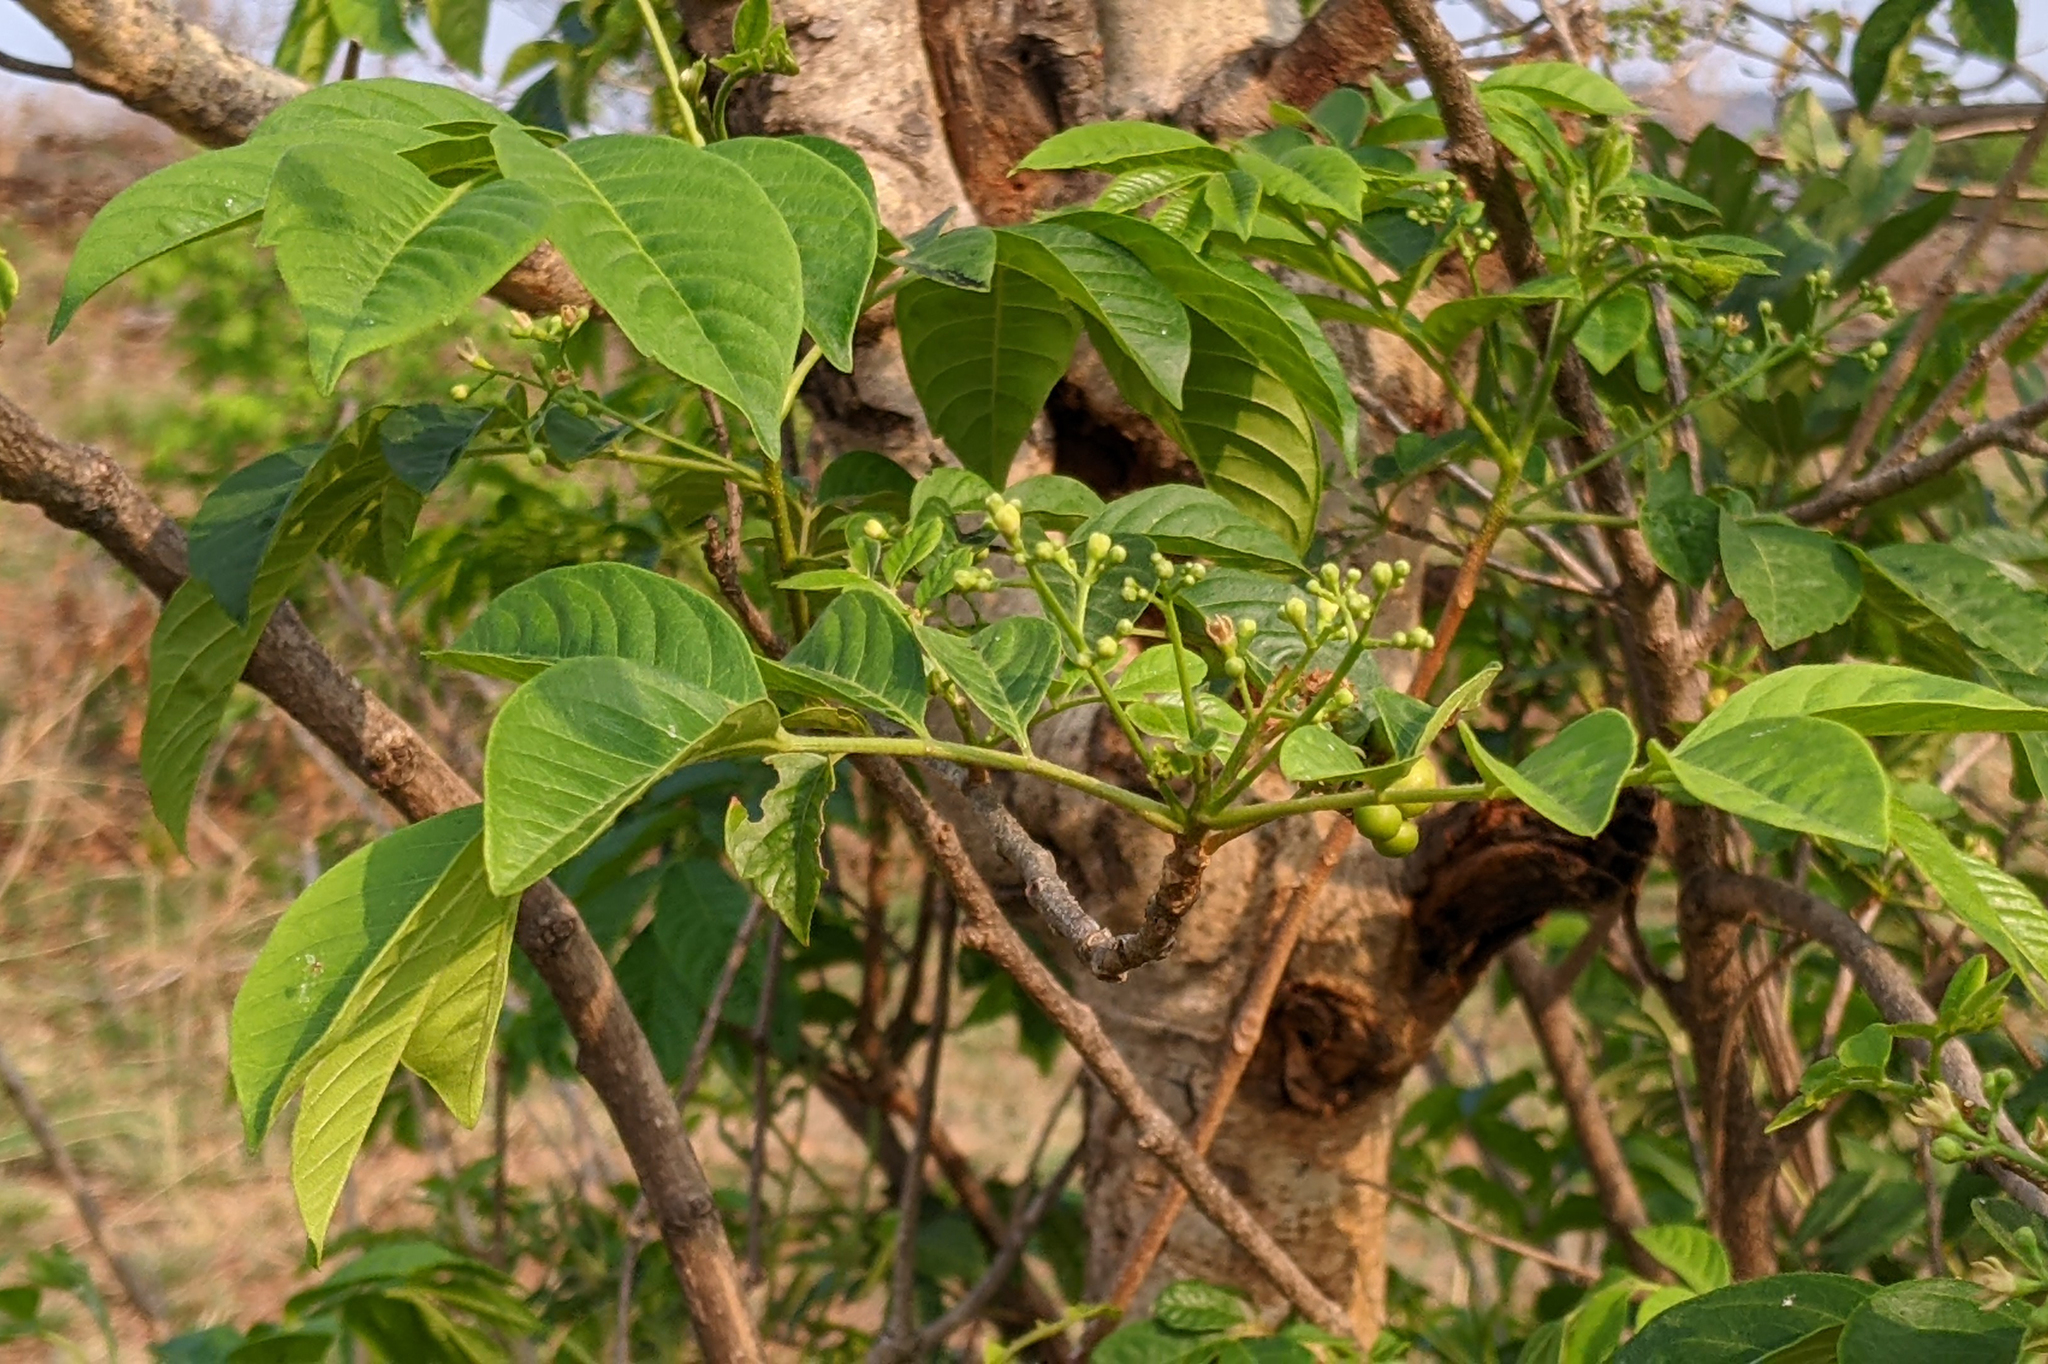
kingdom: Plantae
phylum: Tracheophyta
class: Magnoliopsida
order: Sapindales
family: Meliaceae
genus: Cipadessa
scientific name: Cipadessa baccifera
